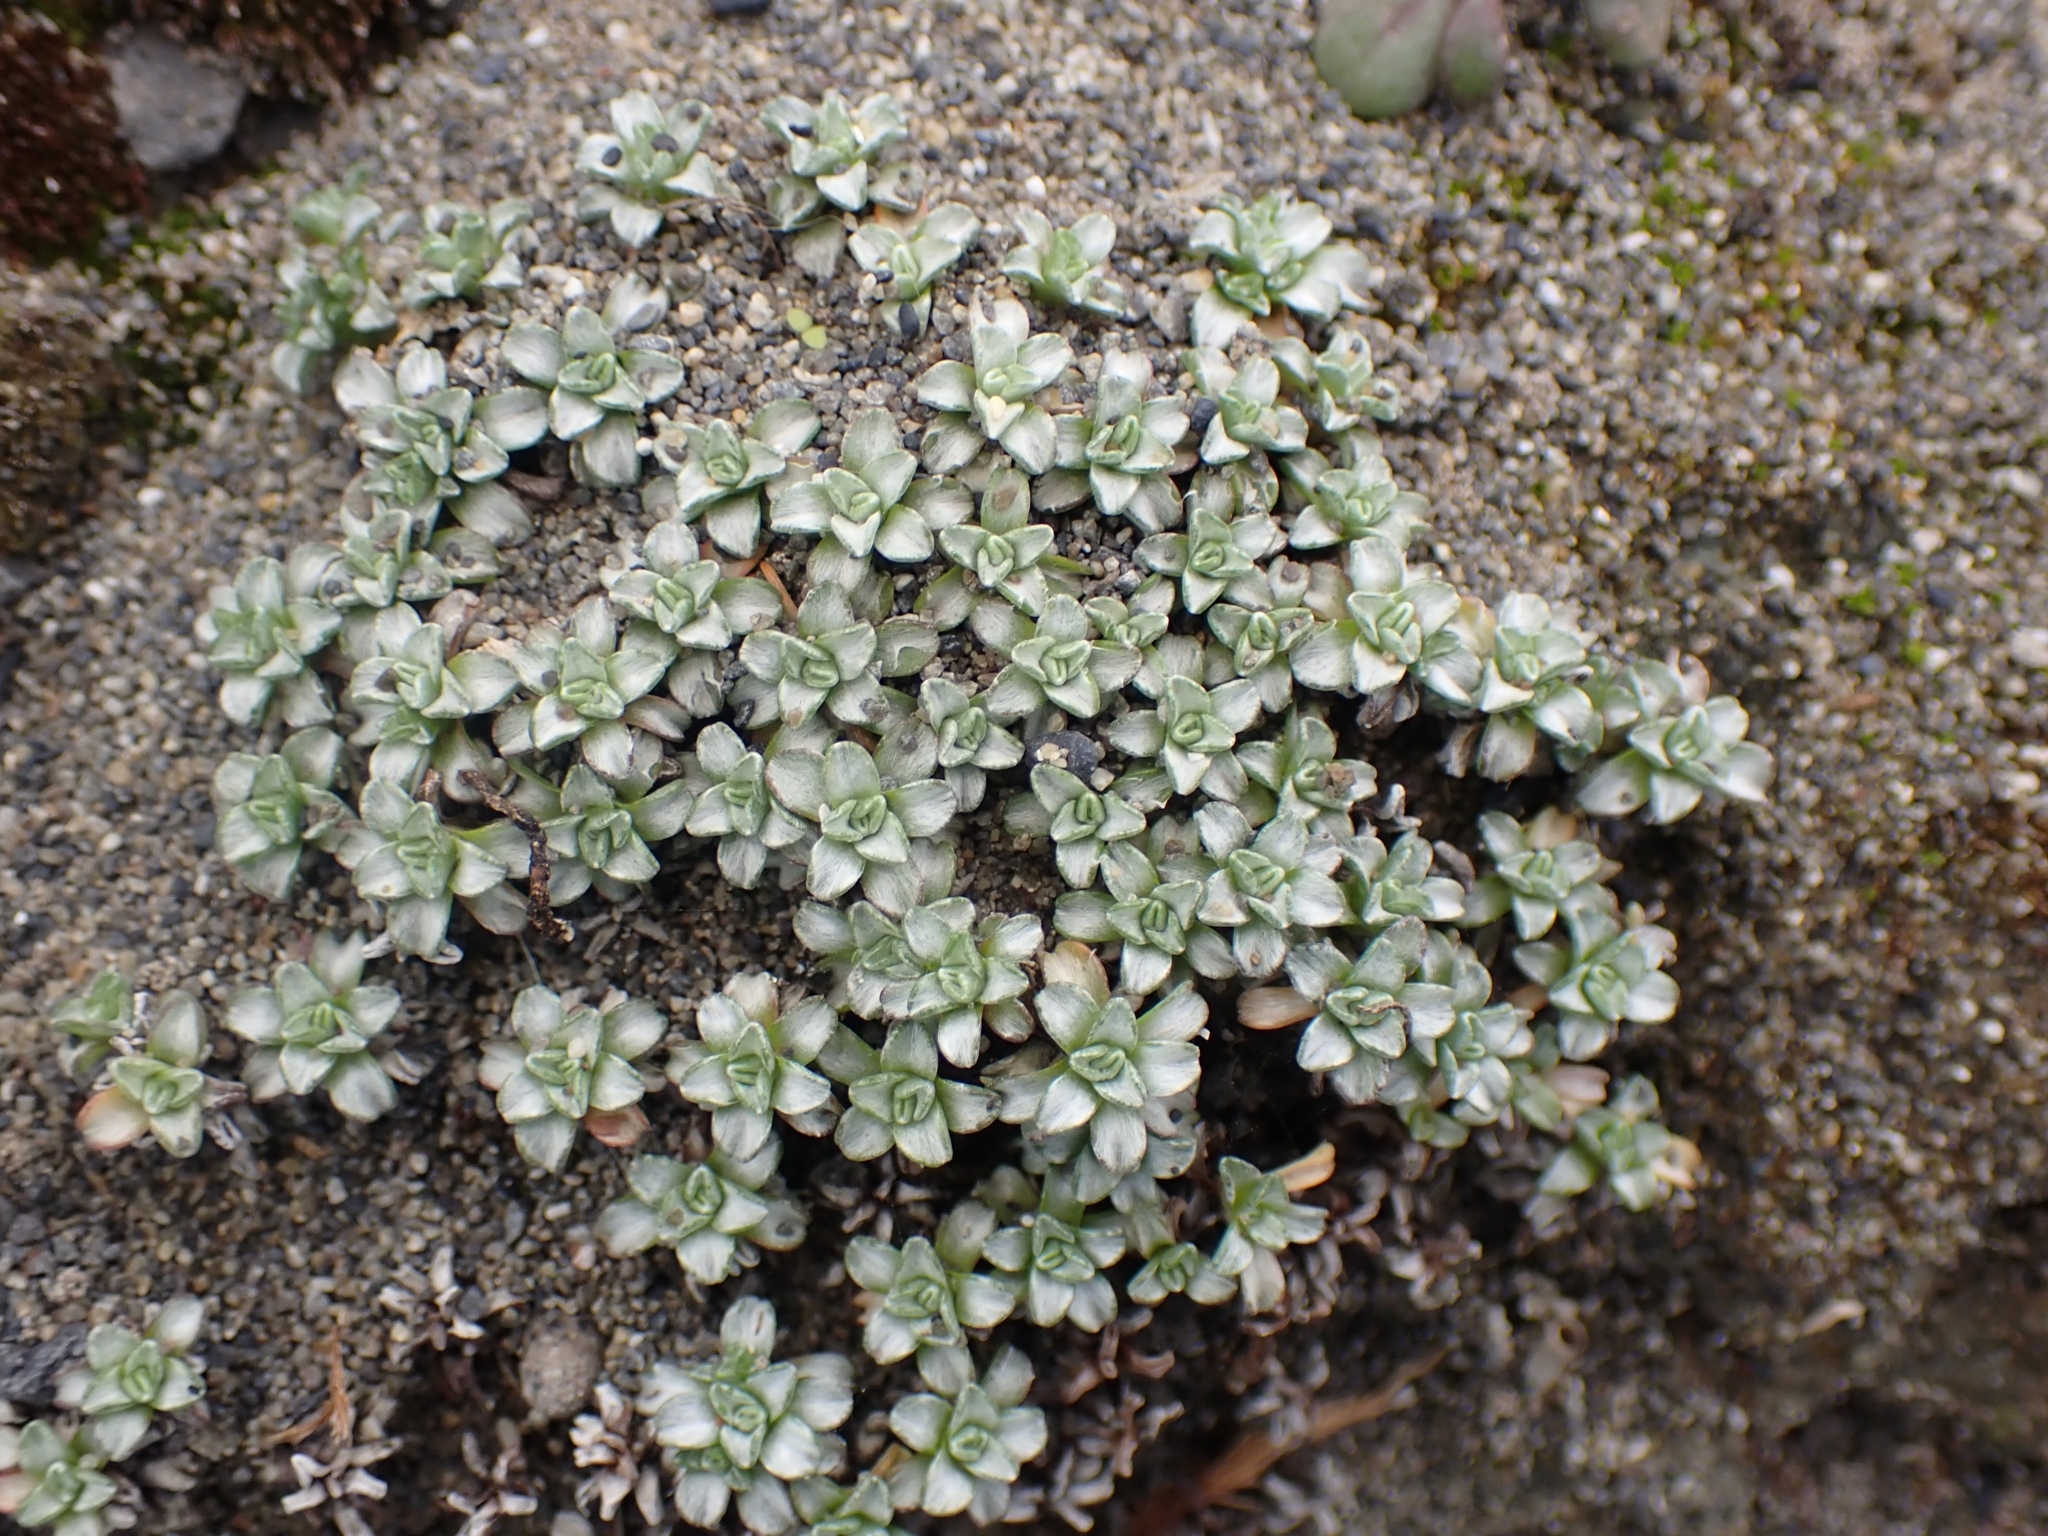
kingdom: Plantae
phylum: Tracheophyta
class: Magnoliopsida
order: Asterales
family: Asteraceae
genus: Raoulia
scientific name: Raoulia hookeri
